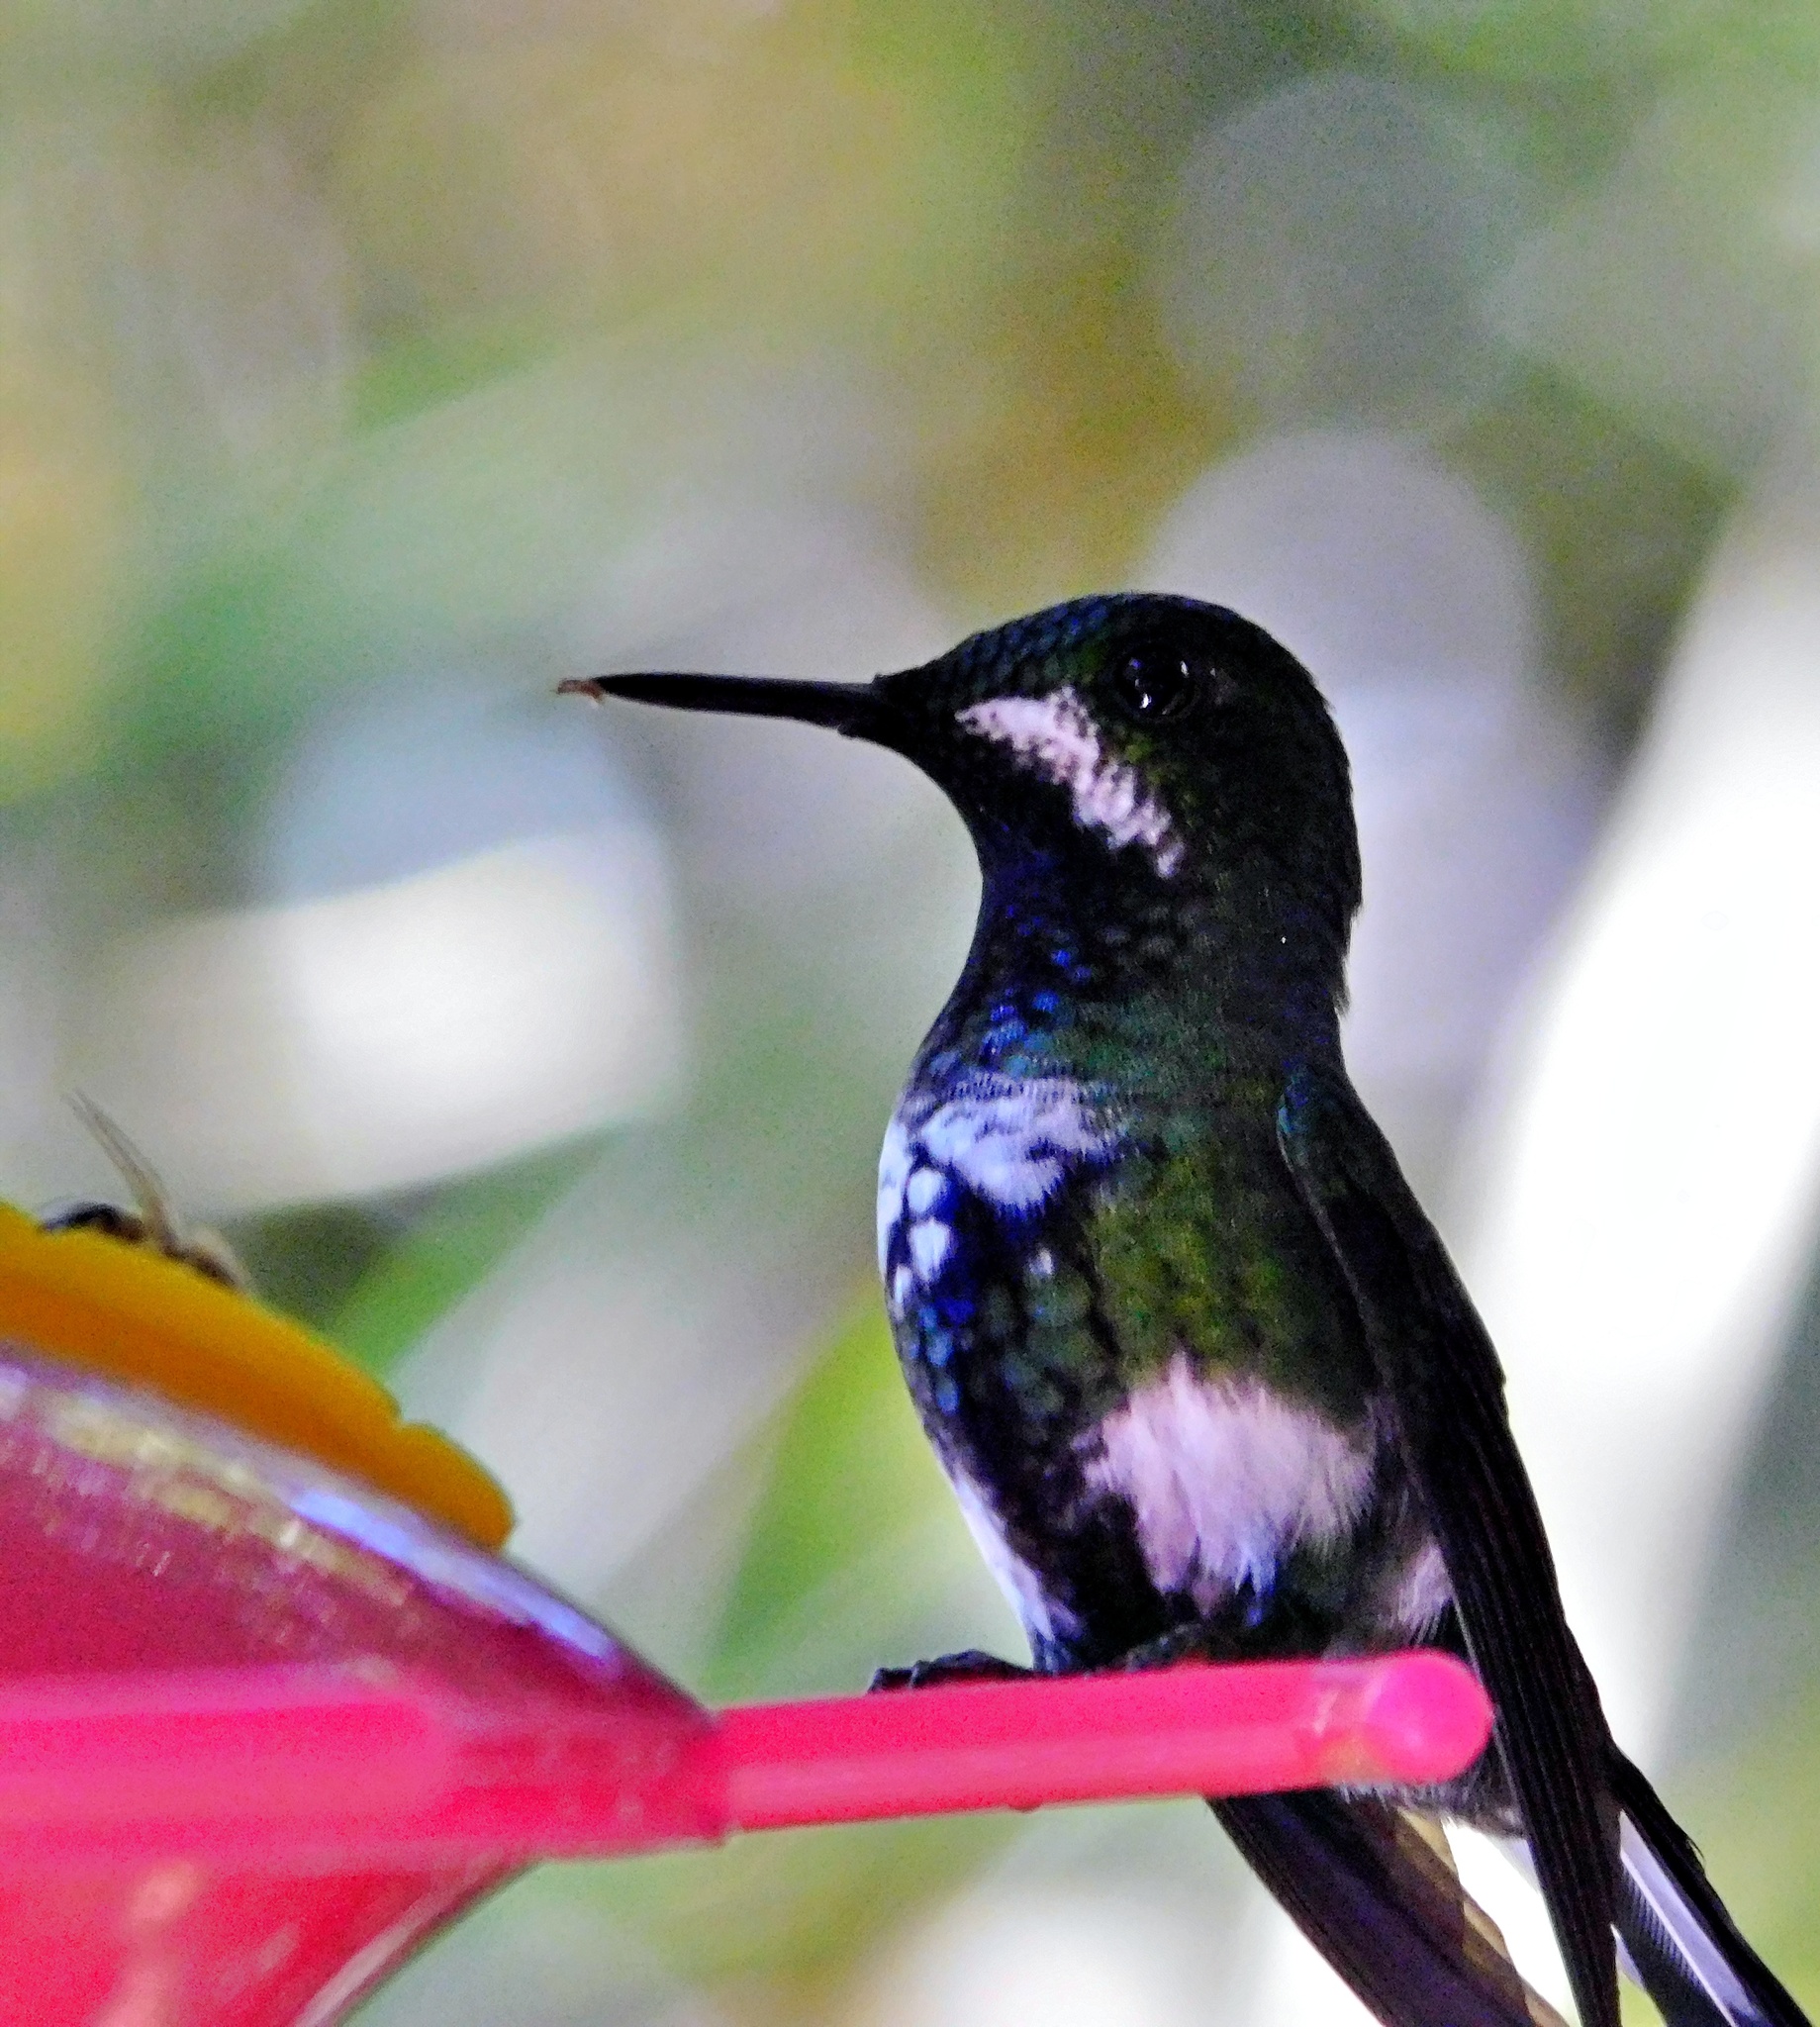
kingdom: Animalia
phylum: Chordata
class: Aves
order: Apodiformes
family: Trochilidae
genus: Discosura
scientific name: Discosura conversii
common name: Green thorntail
